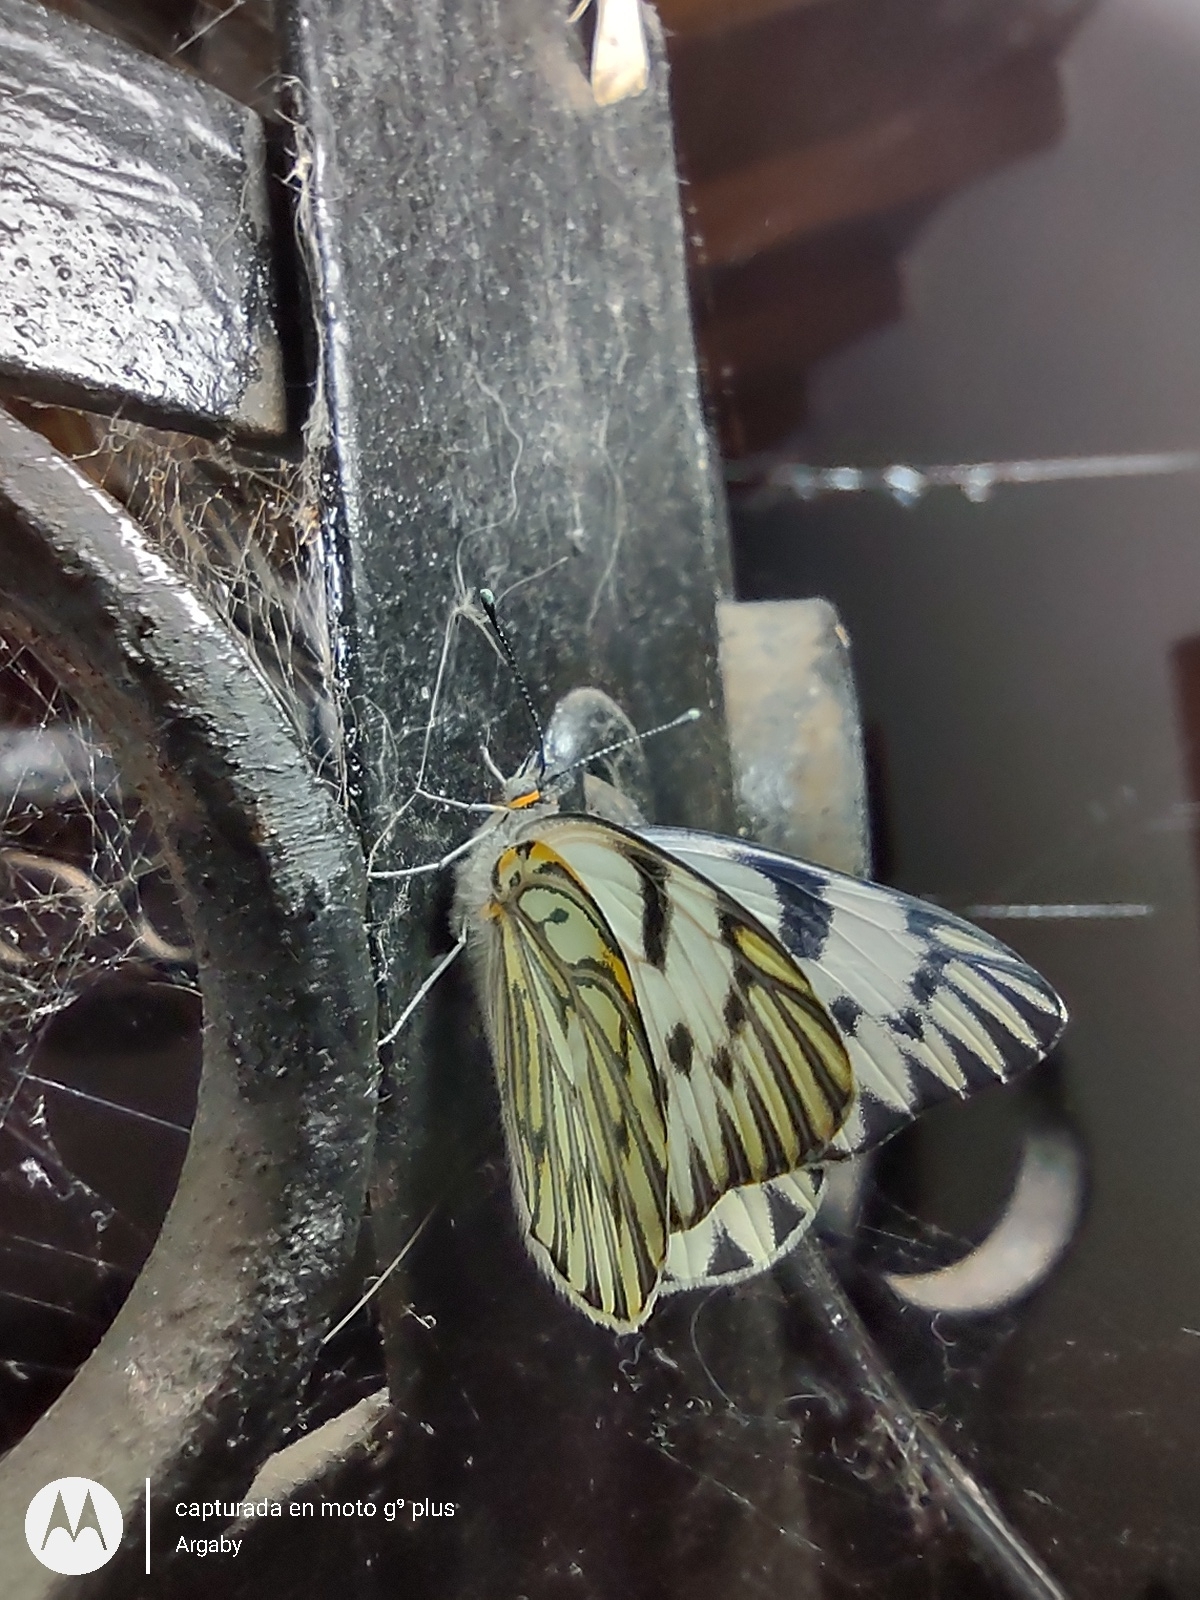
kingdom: Animalia
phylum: Arthropoda
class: Insecta
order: Lepidoptera
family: Pieridae
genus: Tatochila
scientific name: Tatochila autodice
